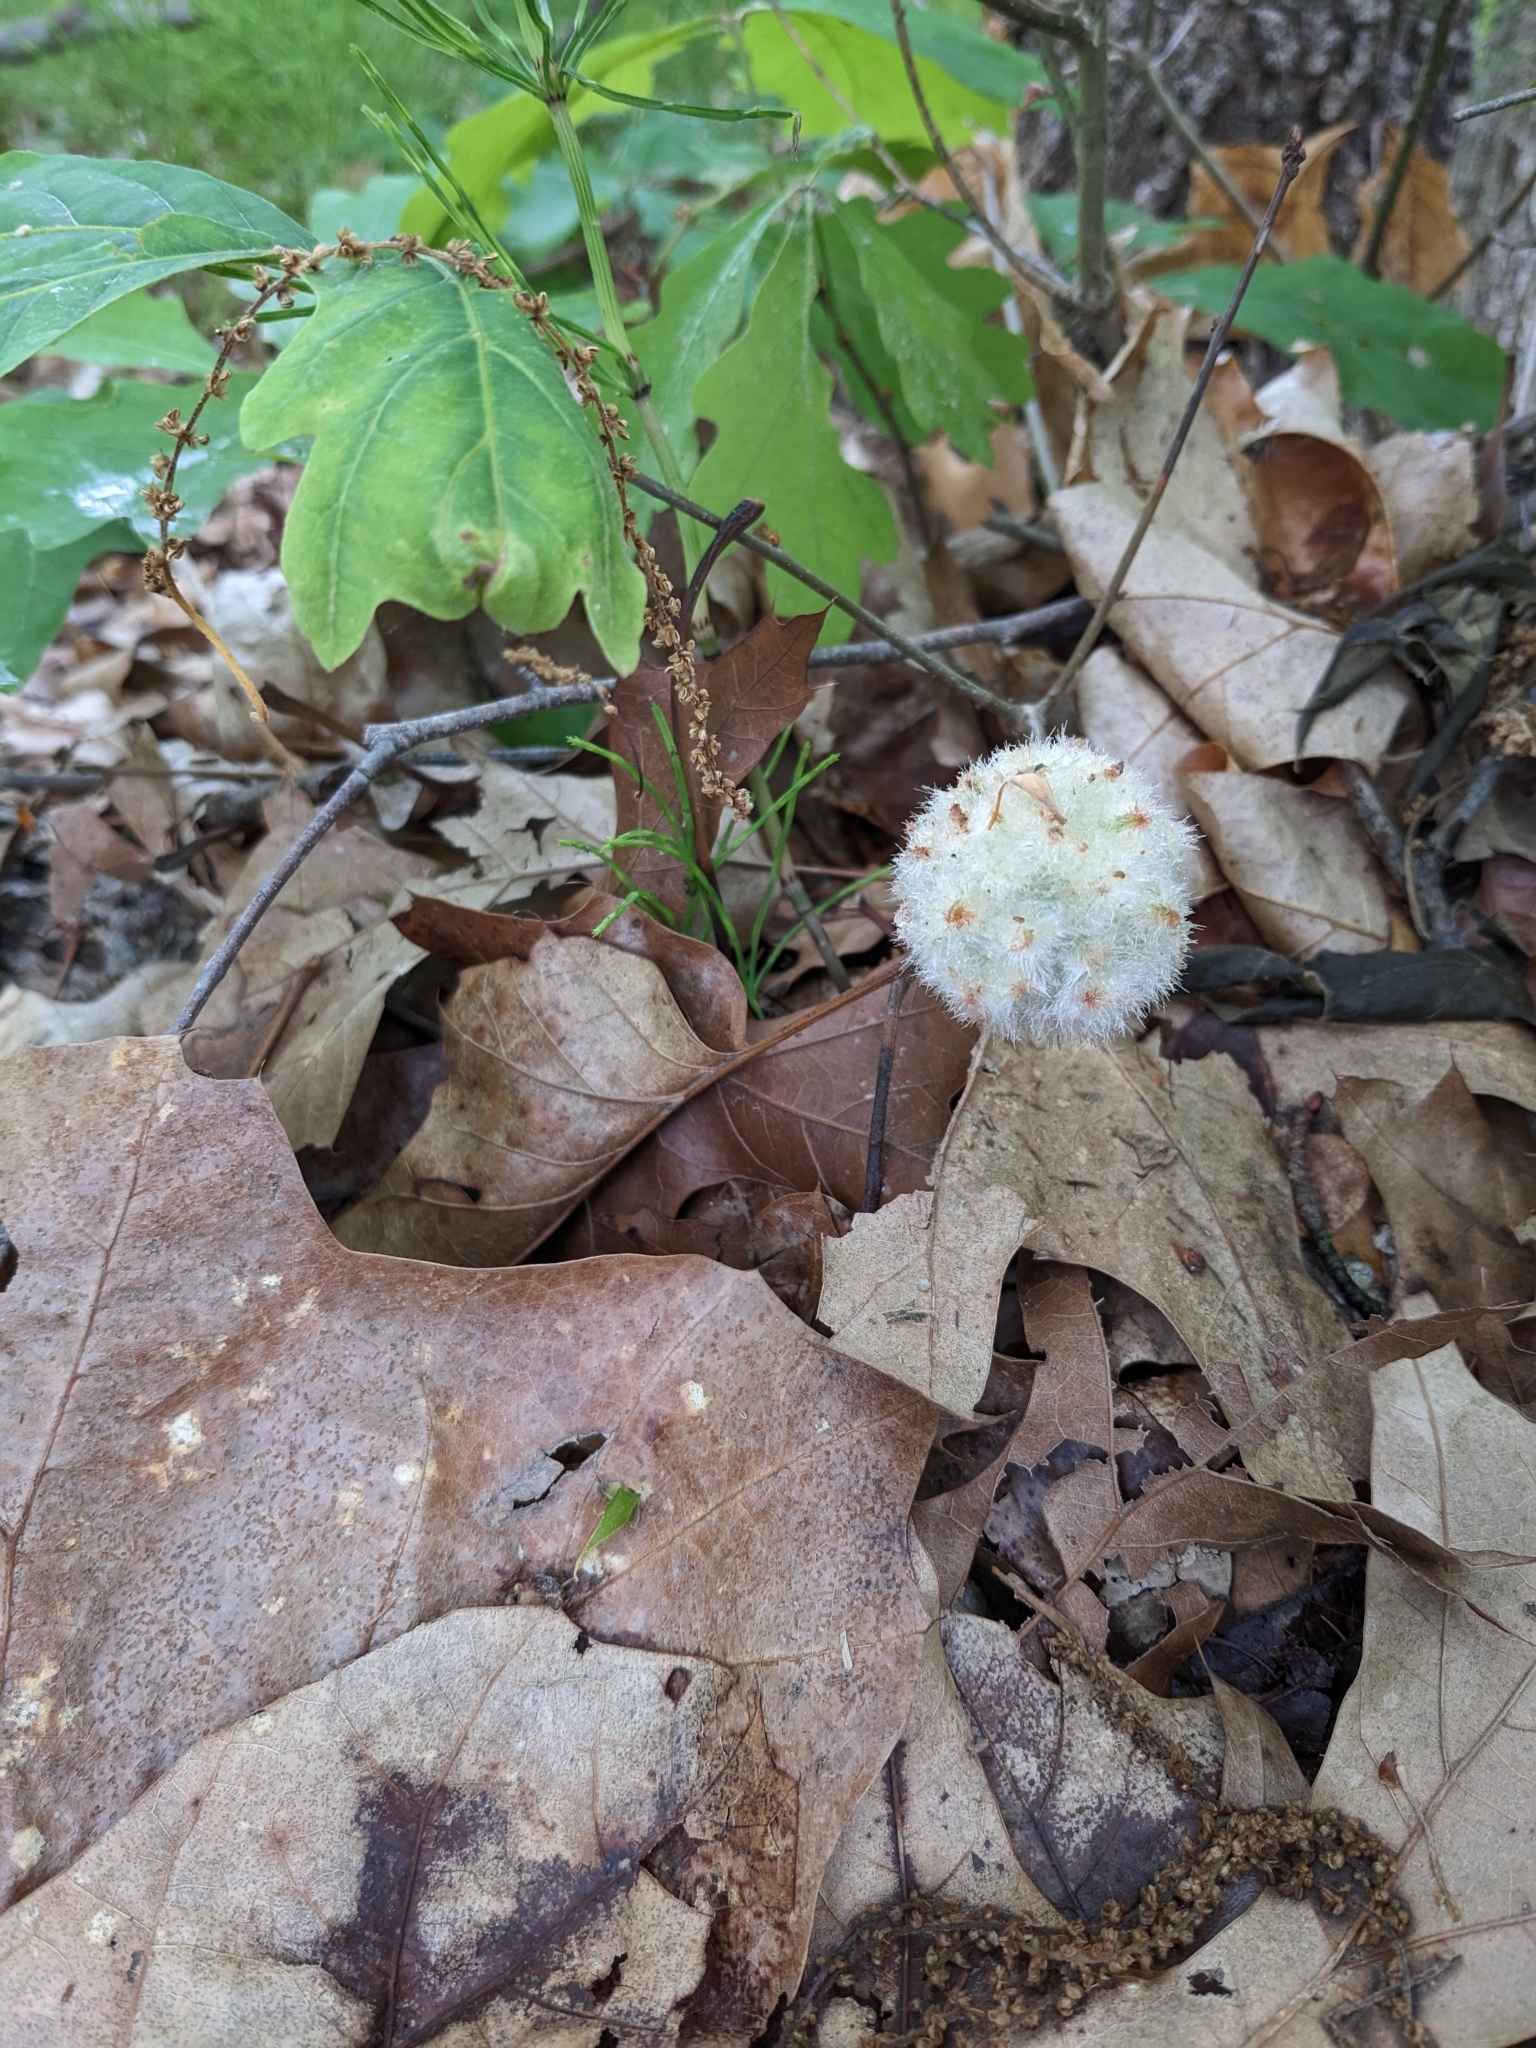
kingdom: Animalia
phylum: Arthropoda
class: Insecta
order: Hymenoptera
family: Cynipidae
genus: Callirhytis
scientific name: Callirhytis
